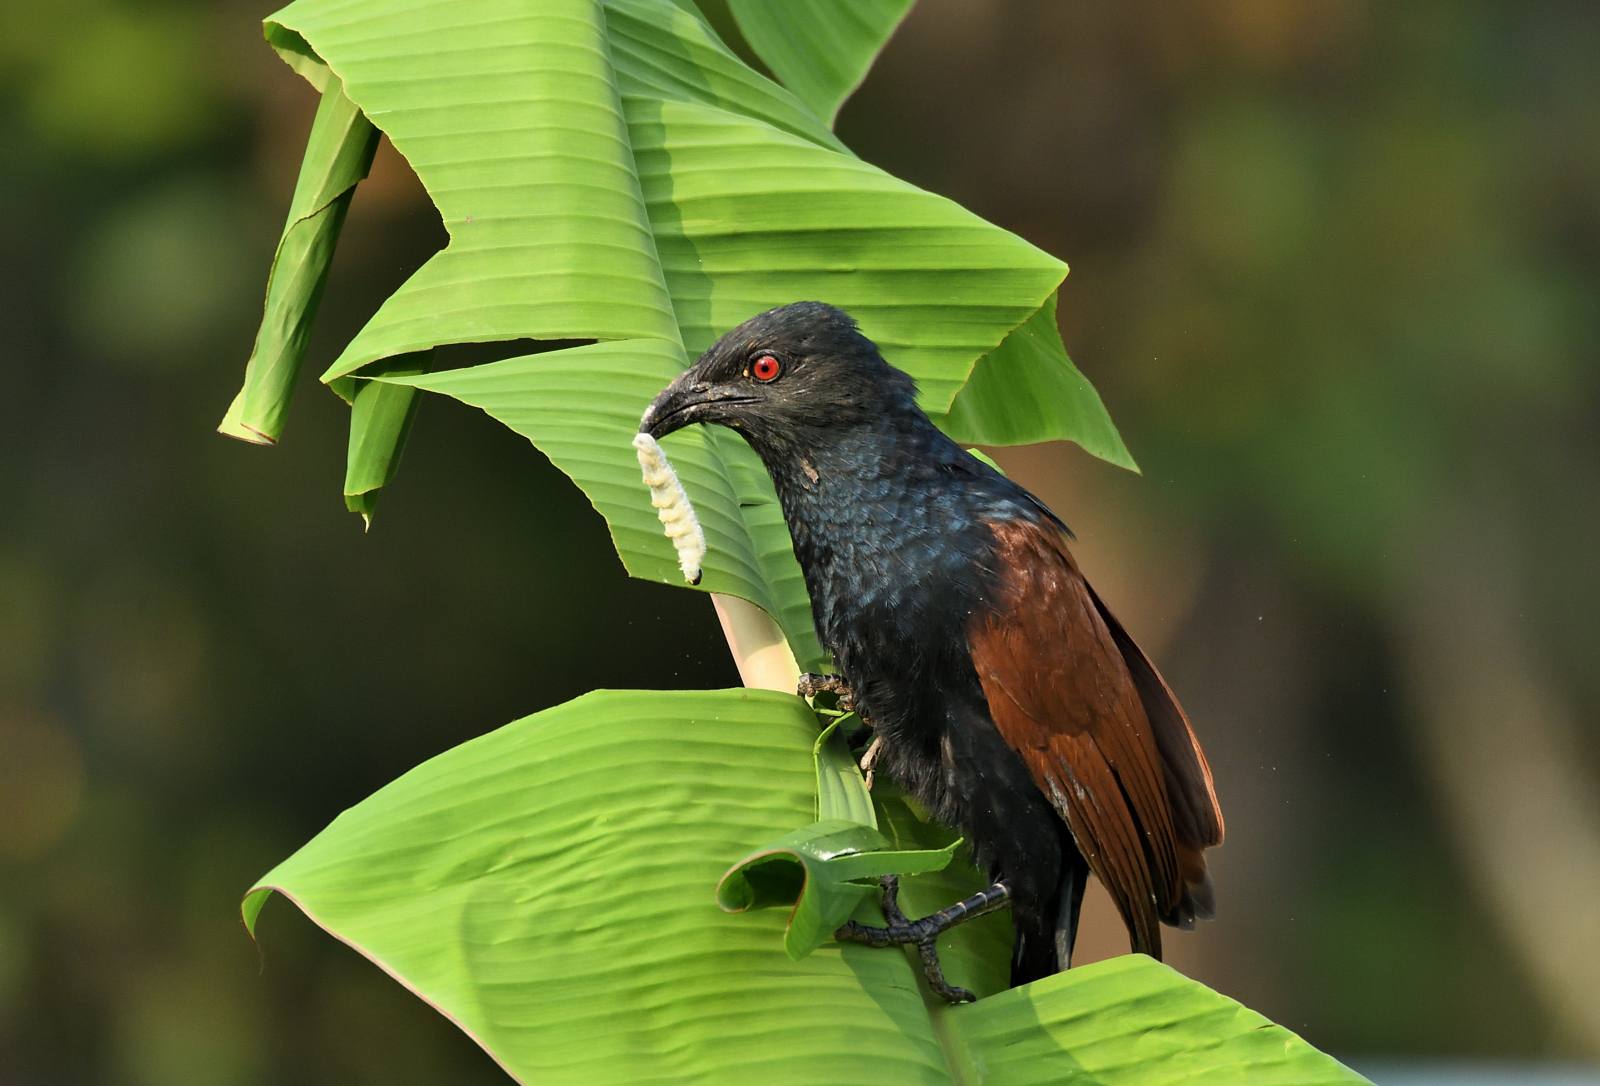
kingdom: Animalia
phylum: Chordata
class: Aves
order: Cuculiformes
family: Cuculidae
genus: Centropus
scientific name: Centropus sinensis
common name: Greater coucal
